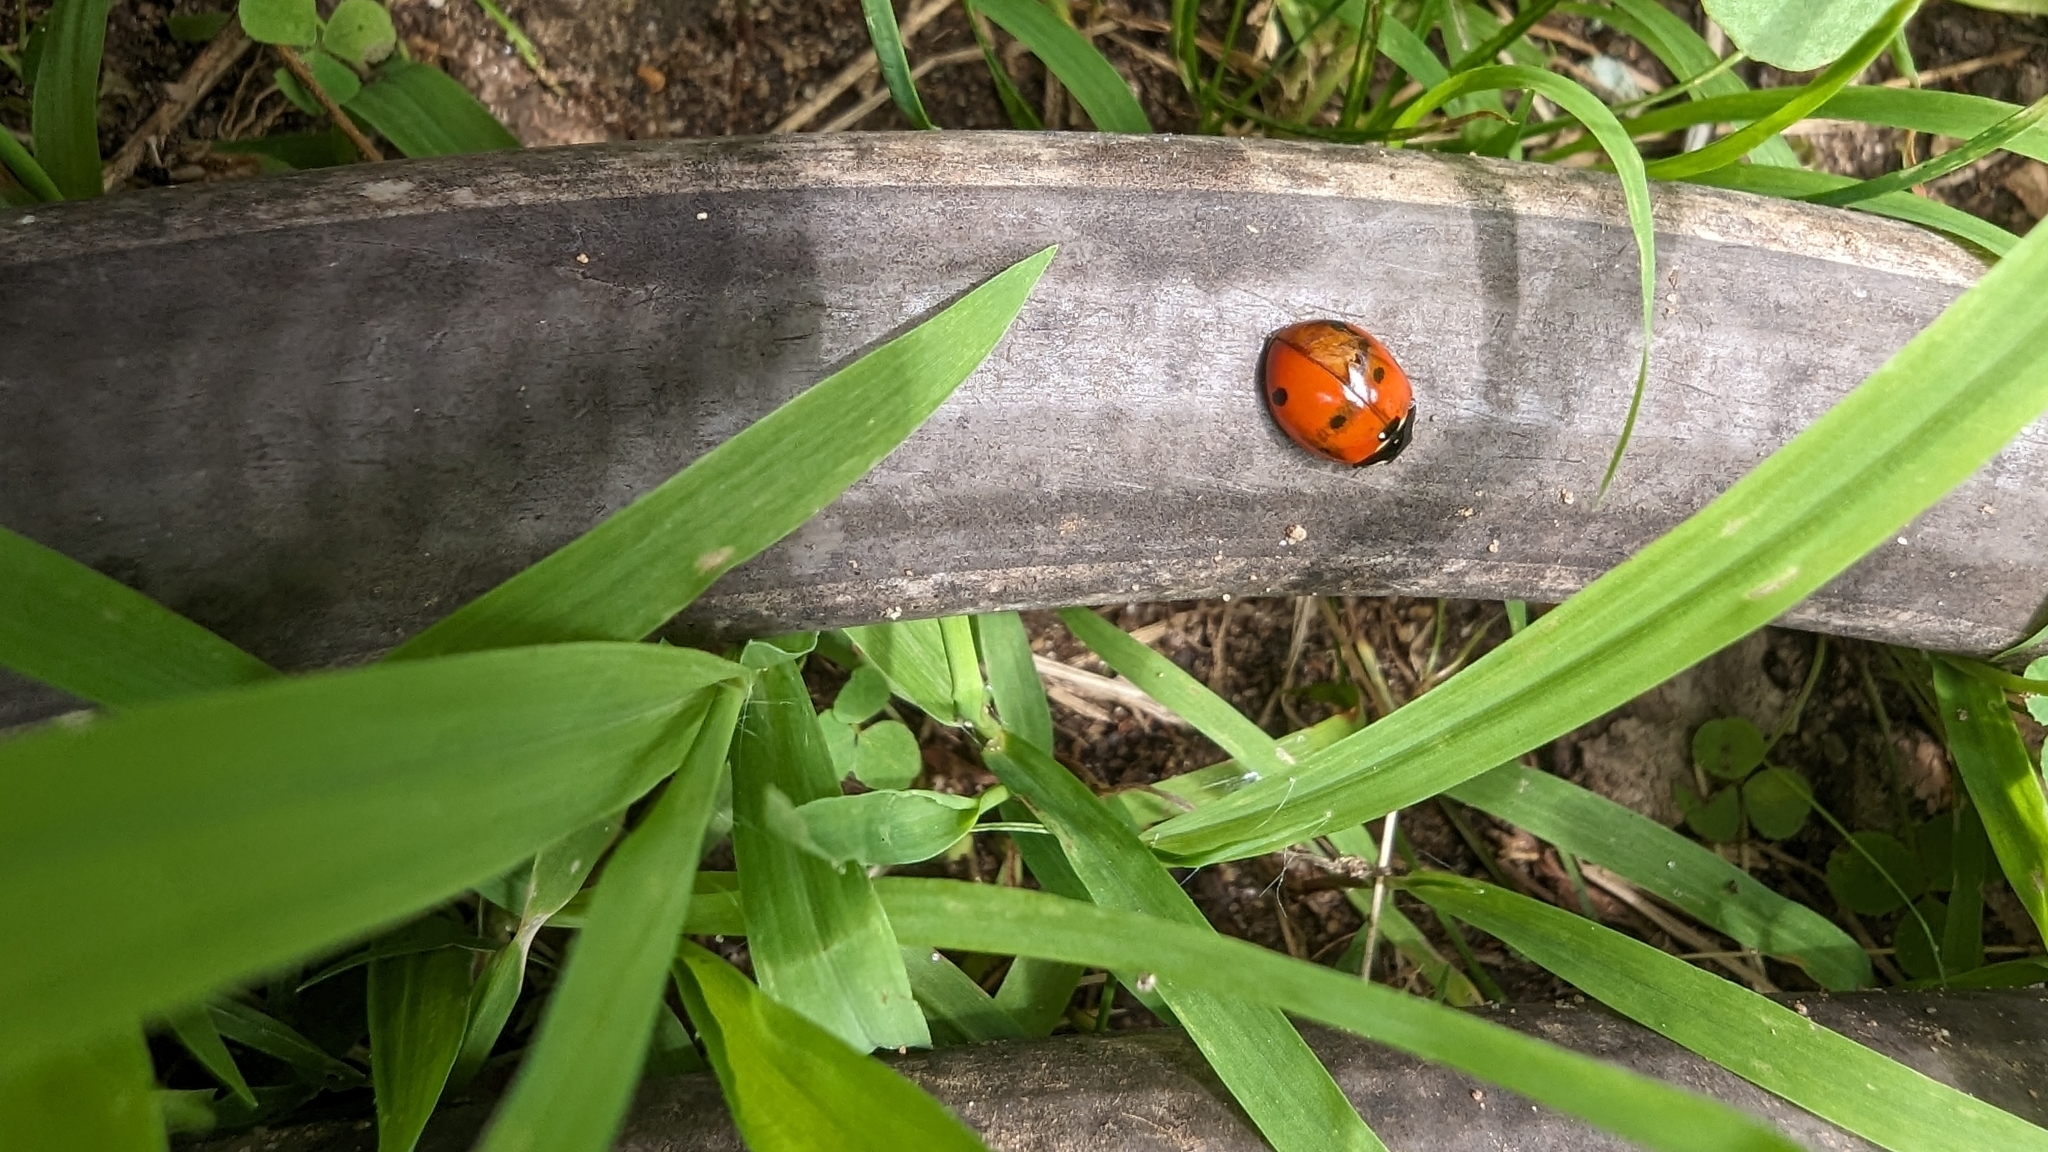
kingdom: Animalia
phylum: Arthropoda
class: Insecta
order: Coleoptera
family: Coccinellidae
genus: Coccinella
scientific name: Coccinella septempunctata
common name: Sevenspotted lady beetle
